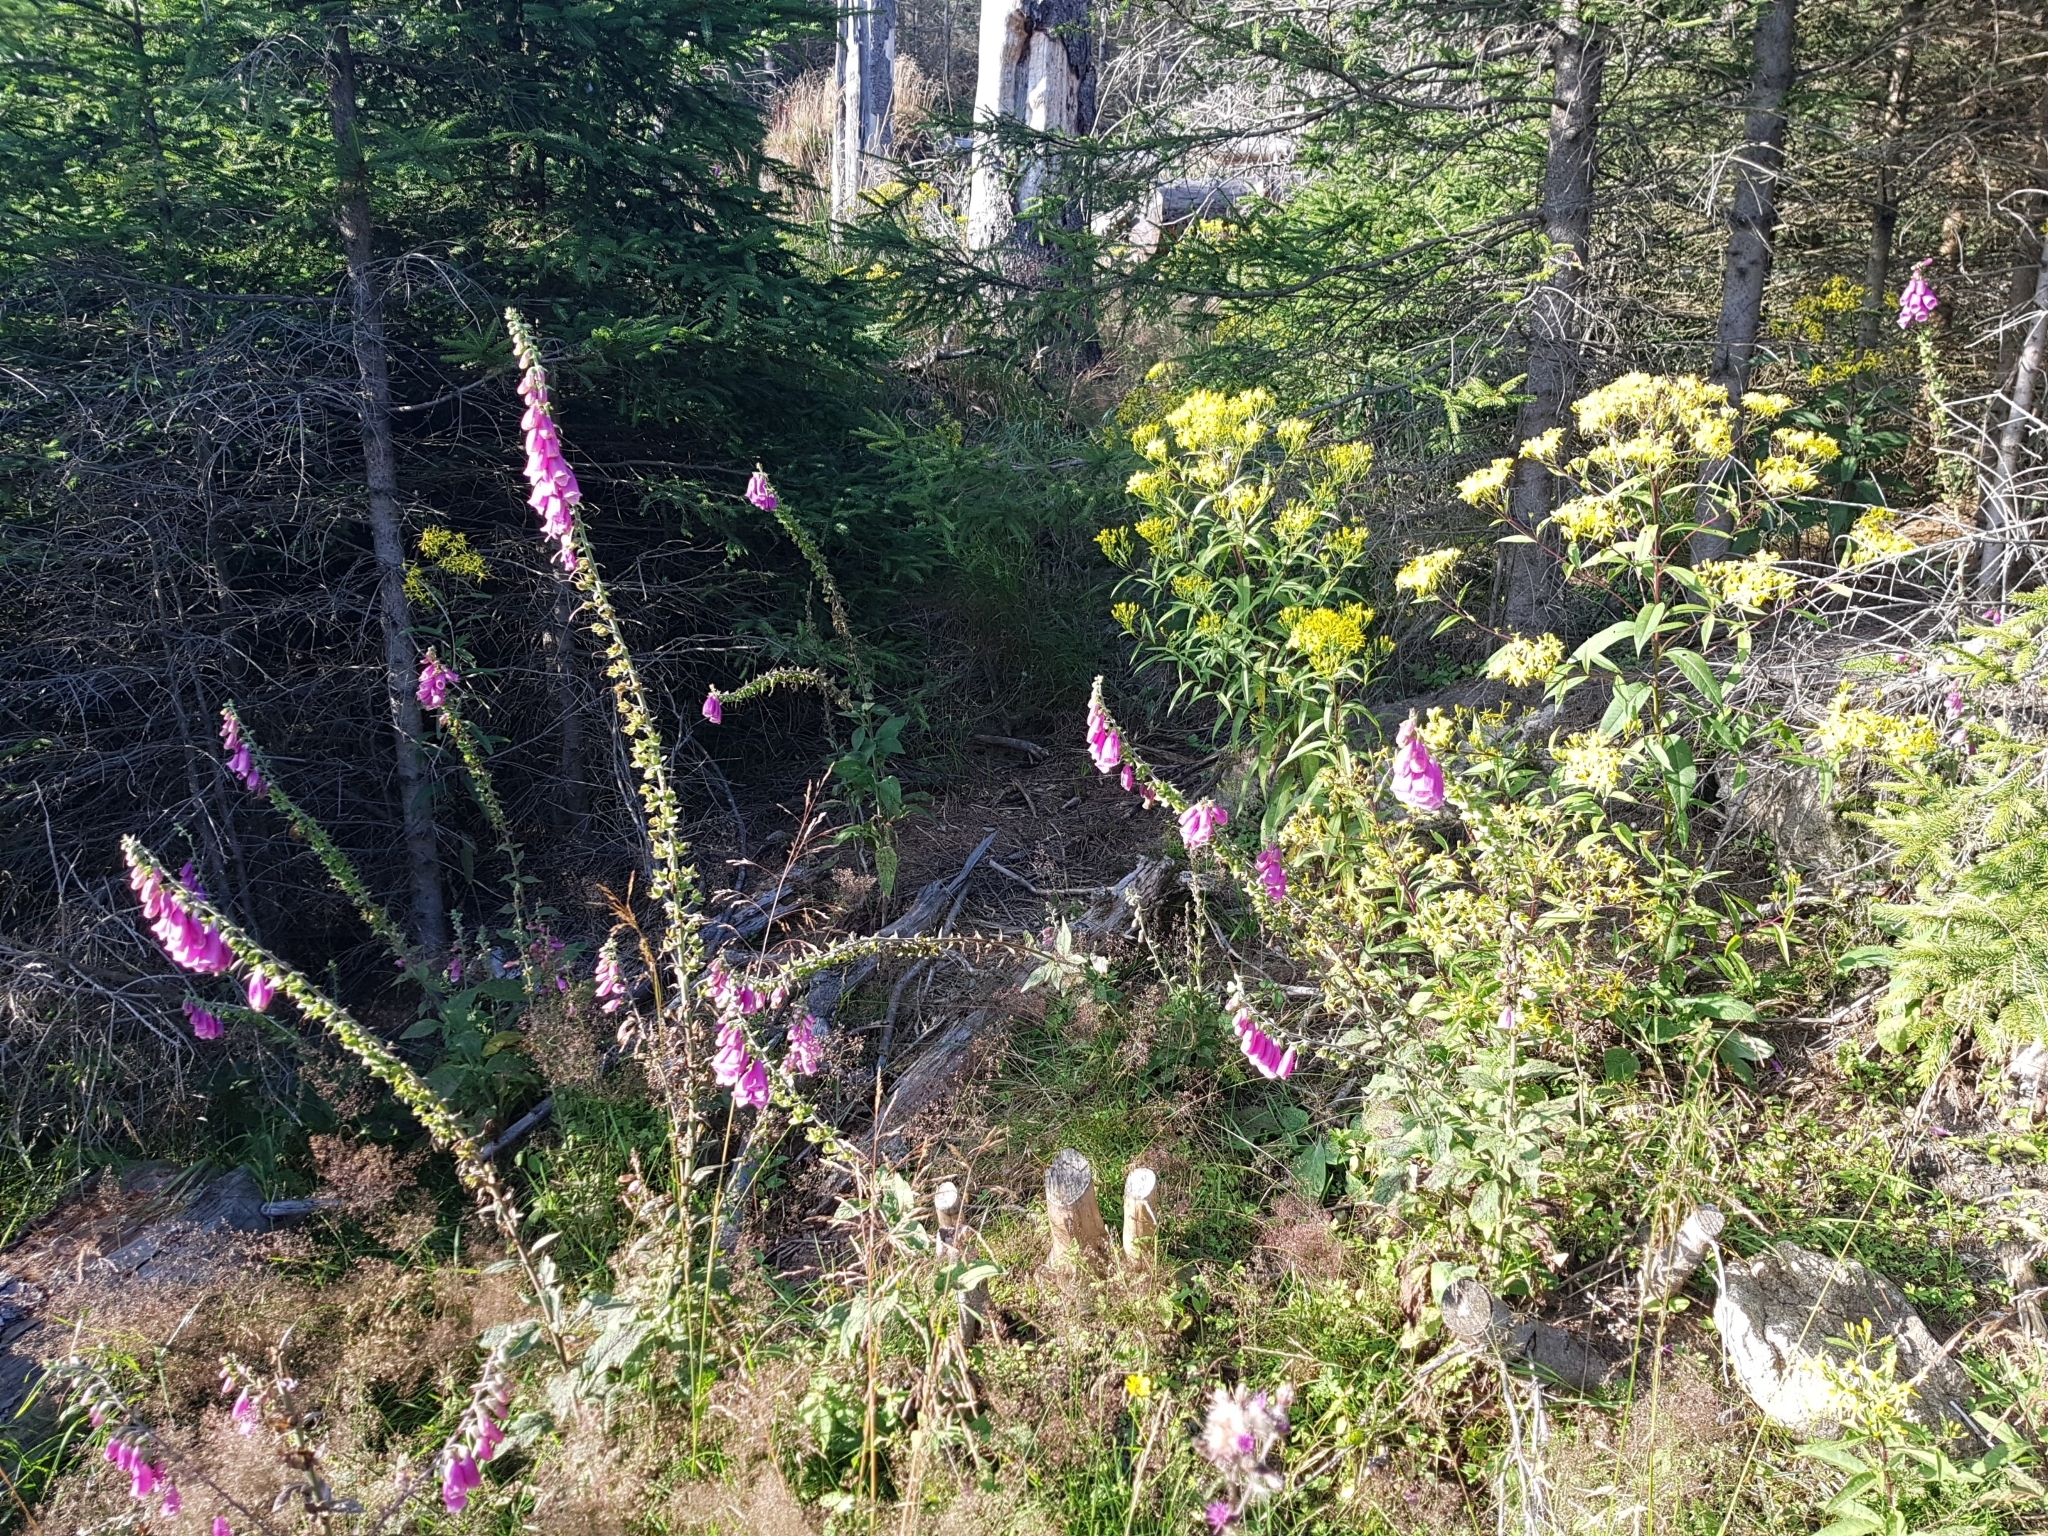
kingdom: Plantae
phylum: Tracheophyta
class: Magnoliopsida
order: Lamiales
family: Plantaginaceae
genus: Digitalis
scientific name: Digitalis purpurea
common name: Foxglove
